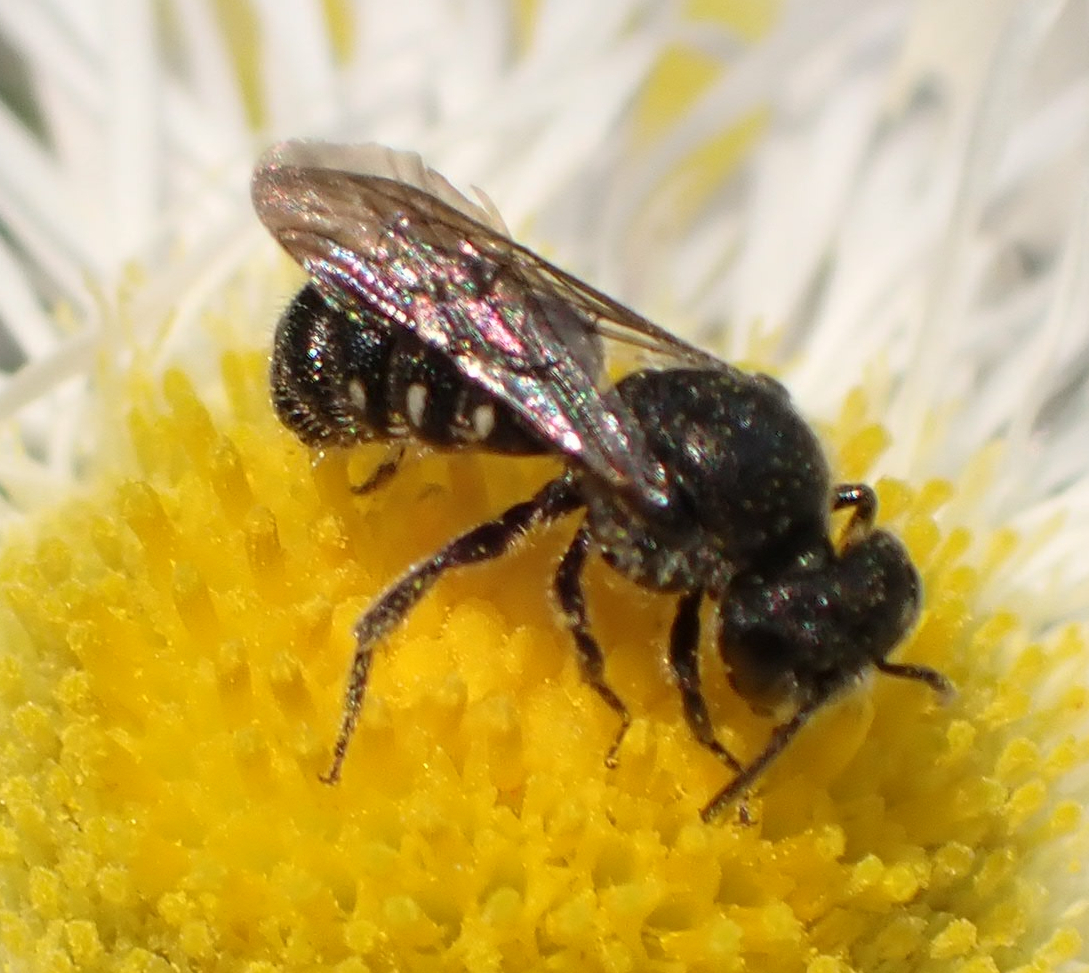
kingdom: Animalia
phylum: Arthropoda
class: Insecta
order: Hymenoptera
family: Megachilidae
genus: Stelis
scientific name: Stelis coarctatus
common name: Constrained cuckoo carder bee
